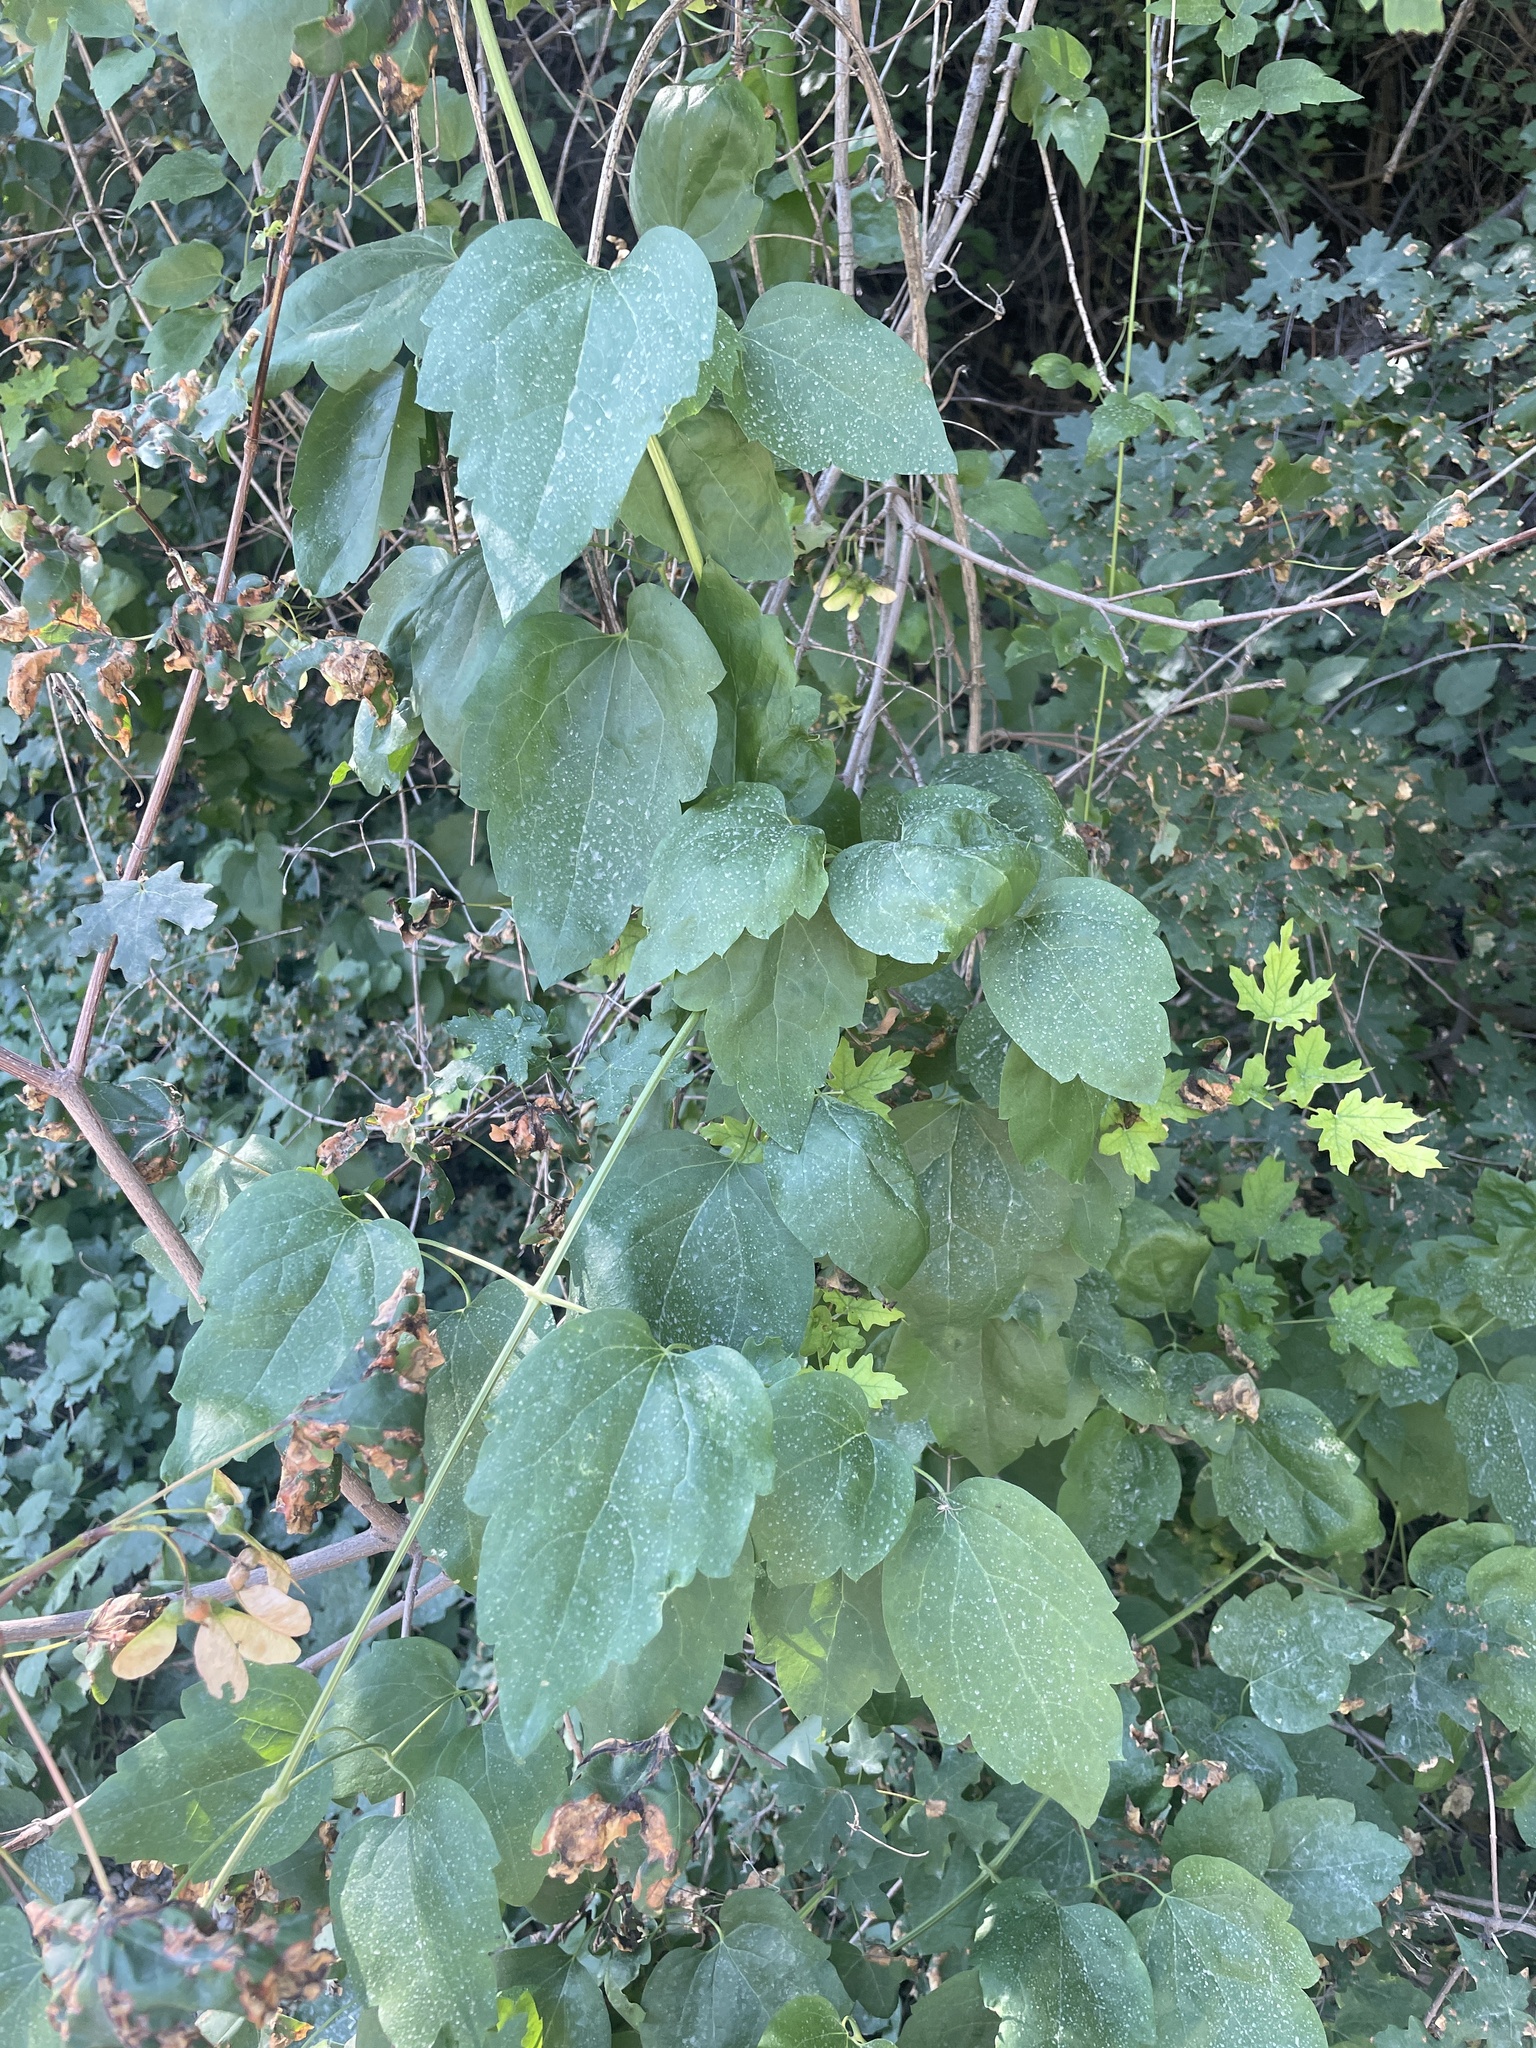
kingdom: Plantae
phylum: Tracheophyta
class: Magnoliopsida
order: Ranunculales
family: Ranunculaceae
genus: Clematis
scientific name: Clematis ligusticifolia
